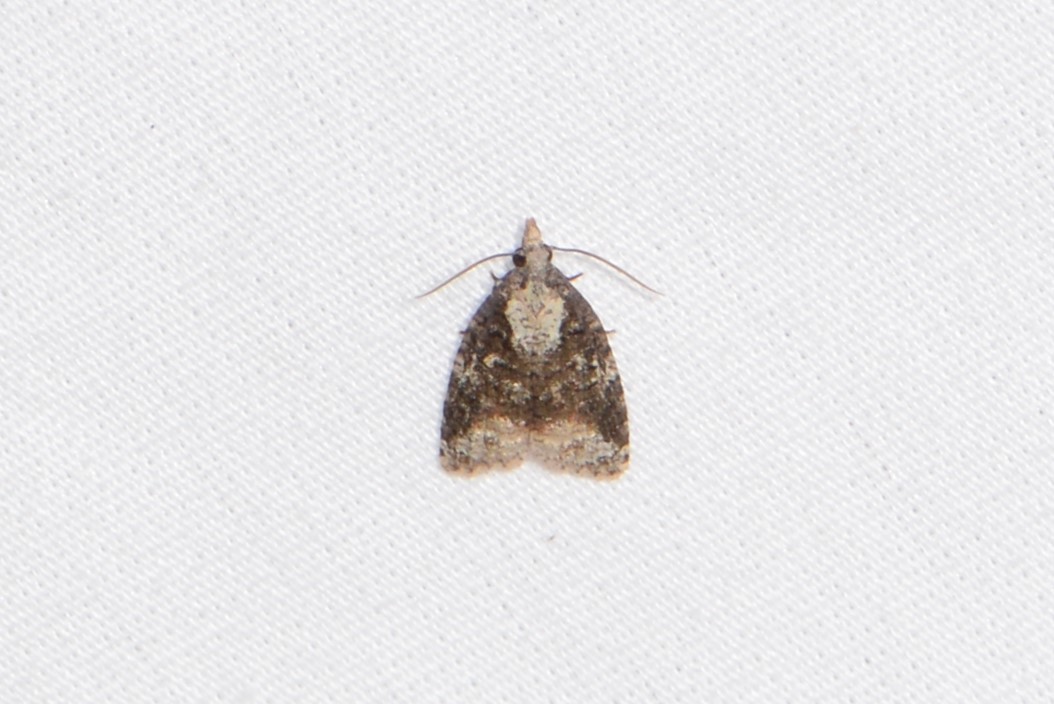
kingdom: Animalia
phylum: Arthropoda
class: Insecta
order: Lepidoptera
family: Tortricidae
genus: Platynota
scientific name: Platynota exasperatana
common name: Exasperating platynota moth
